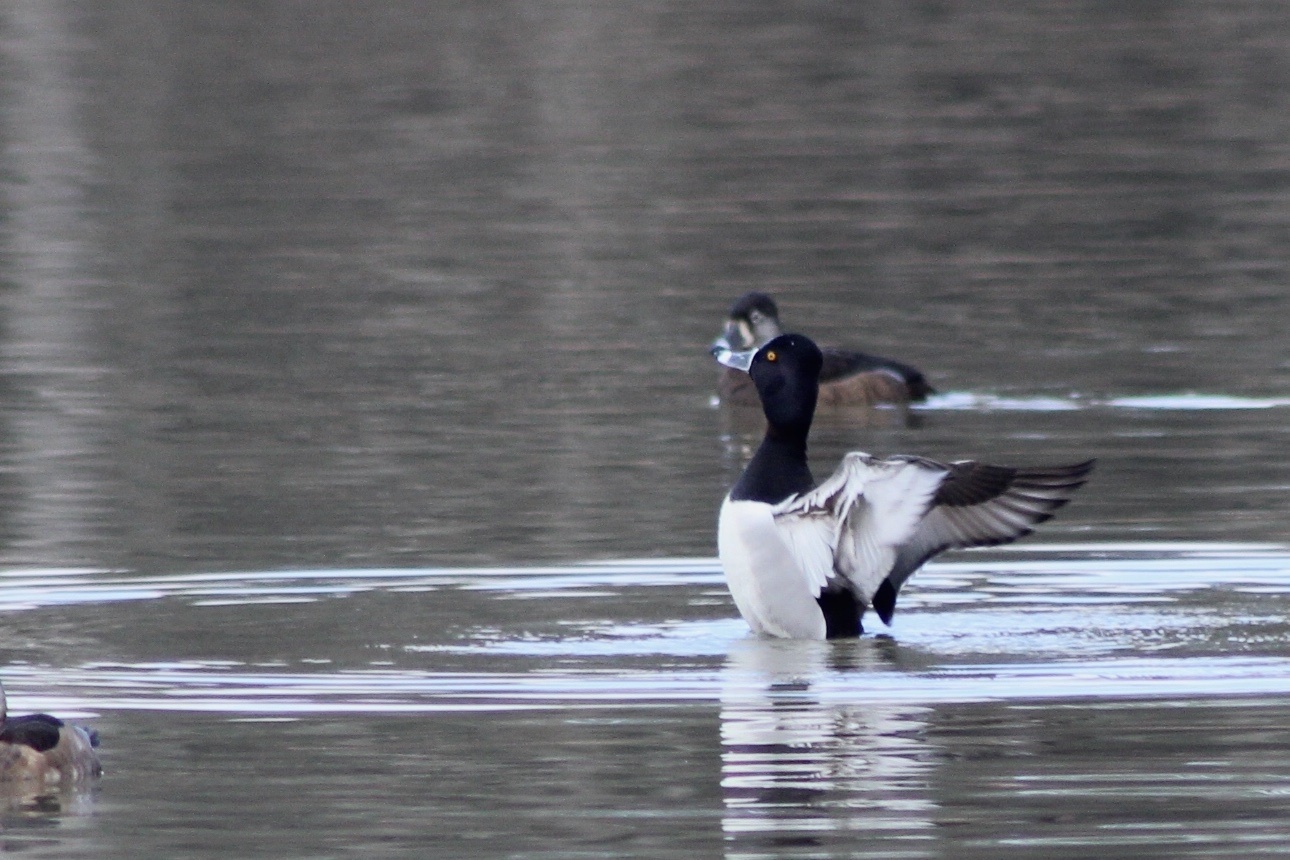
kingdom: Animalia
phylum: Chordata
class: Aves
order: Anseriformes
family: Anatidae
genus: Aythya
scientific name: Aythya collaris
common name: Ring-necked duck
